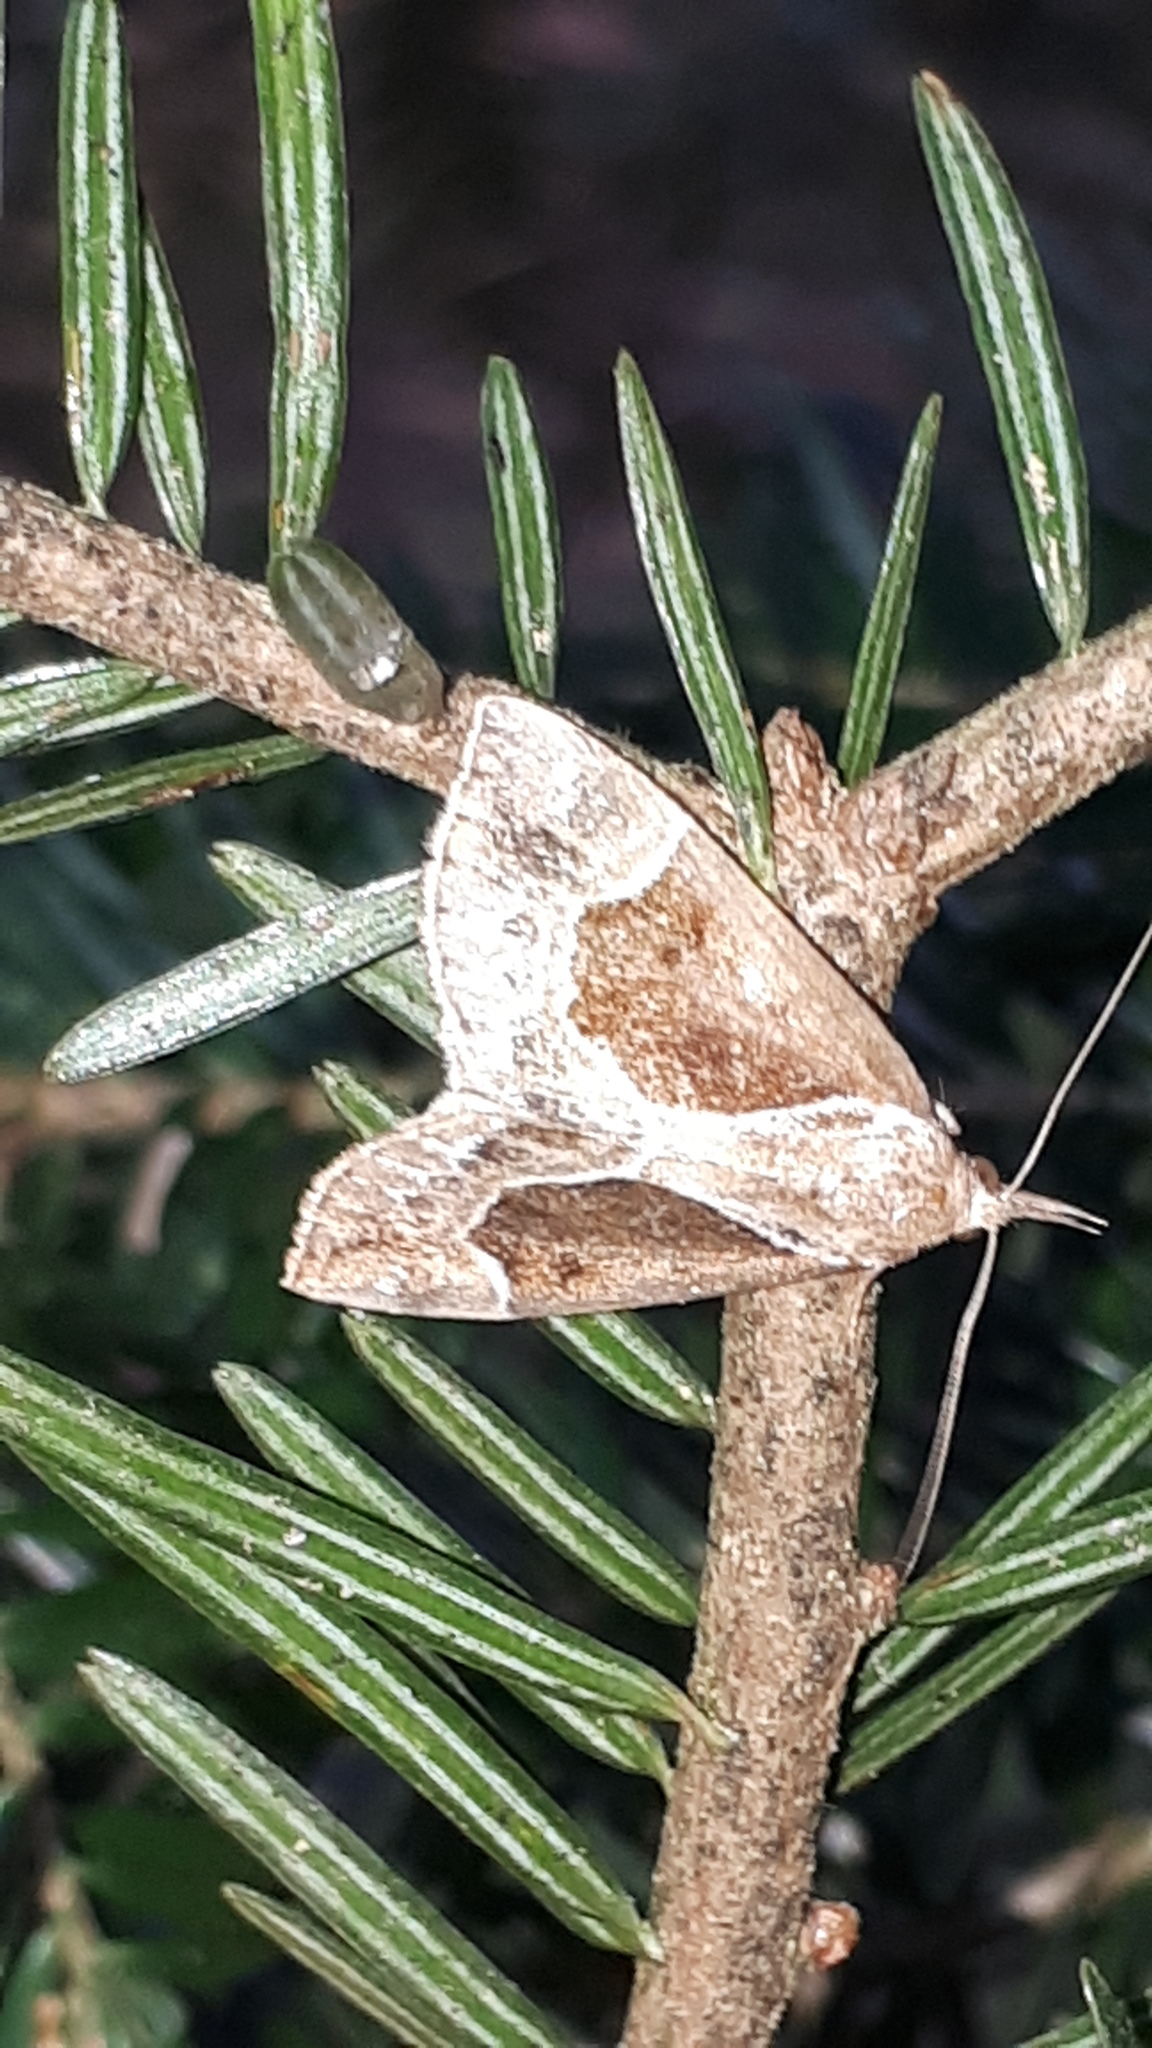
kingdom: Animalia
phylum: Arthropoda
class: Insecta
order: Lepidoptera
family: Erebidae
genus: Hypena
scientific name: Hypena crassalis
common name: Beautiful snout
